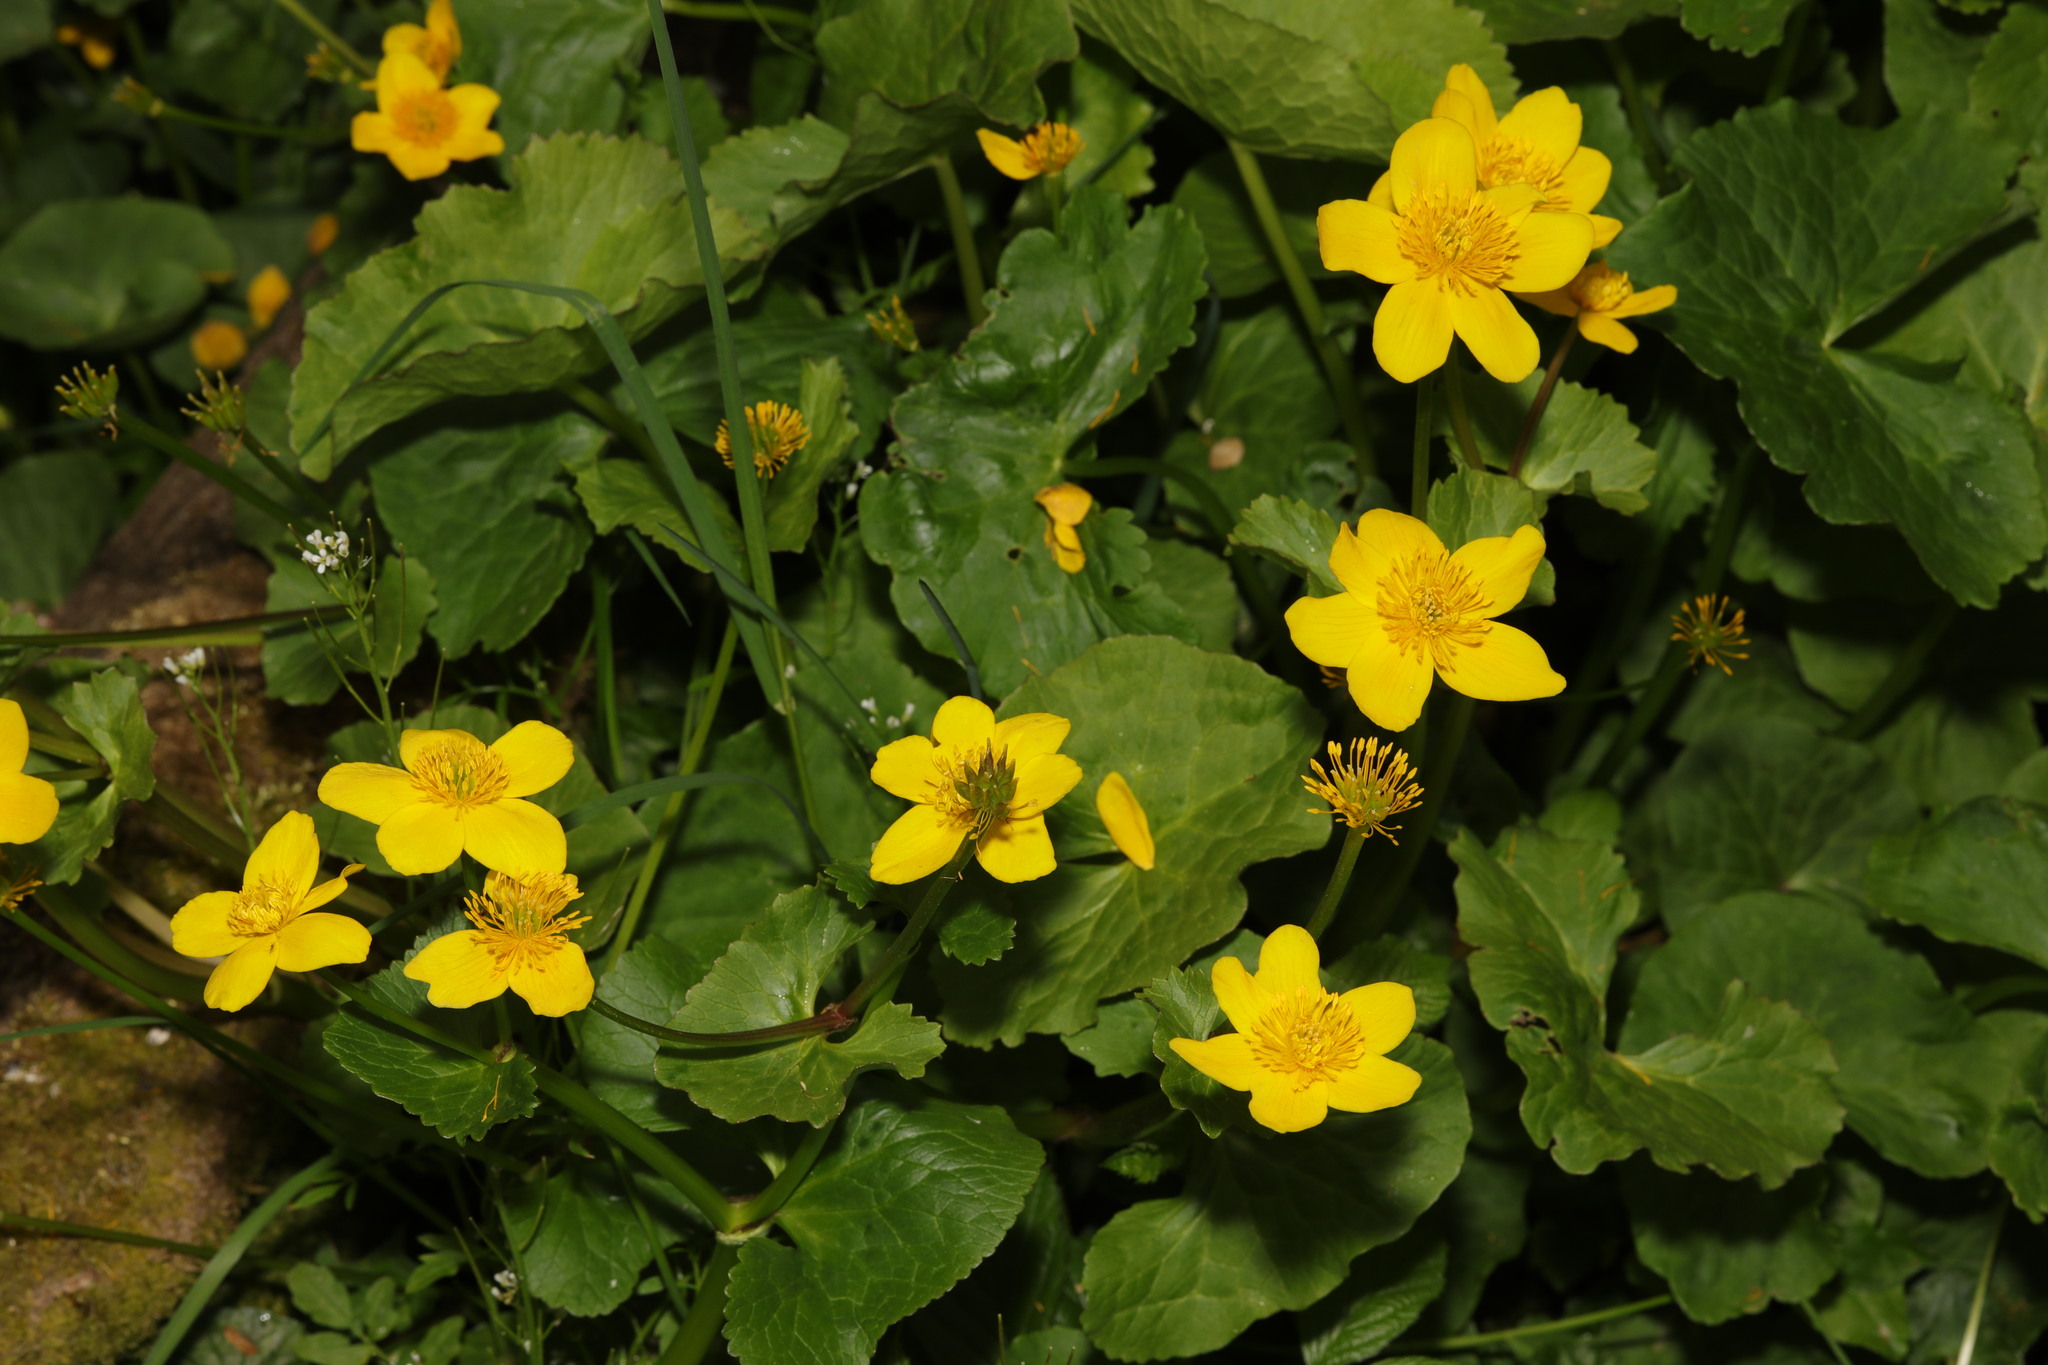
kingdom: Plantae
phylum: Tracheophyta
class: Magnoliopsida
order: Ranunculales
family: Ranunculaceae
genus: Caltha
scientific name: Caltha palustris
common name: Marsh marigold
